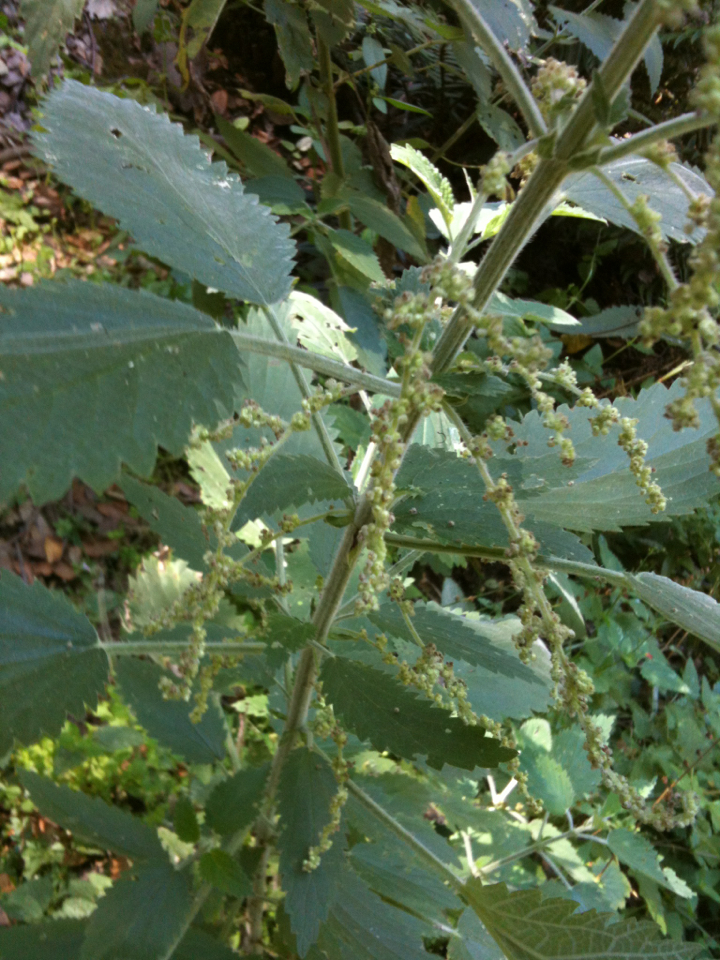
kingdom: Plantae
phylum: Tracheophyta
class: Magnoliopsida
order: Rosales
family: Urticaceae
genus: Urtica
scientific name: Urtica dioica
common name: Common nettle
